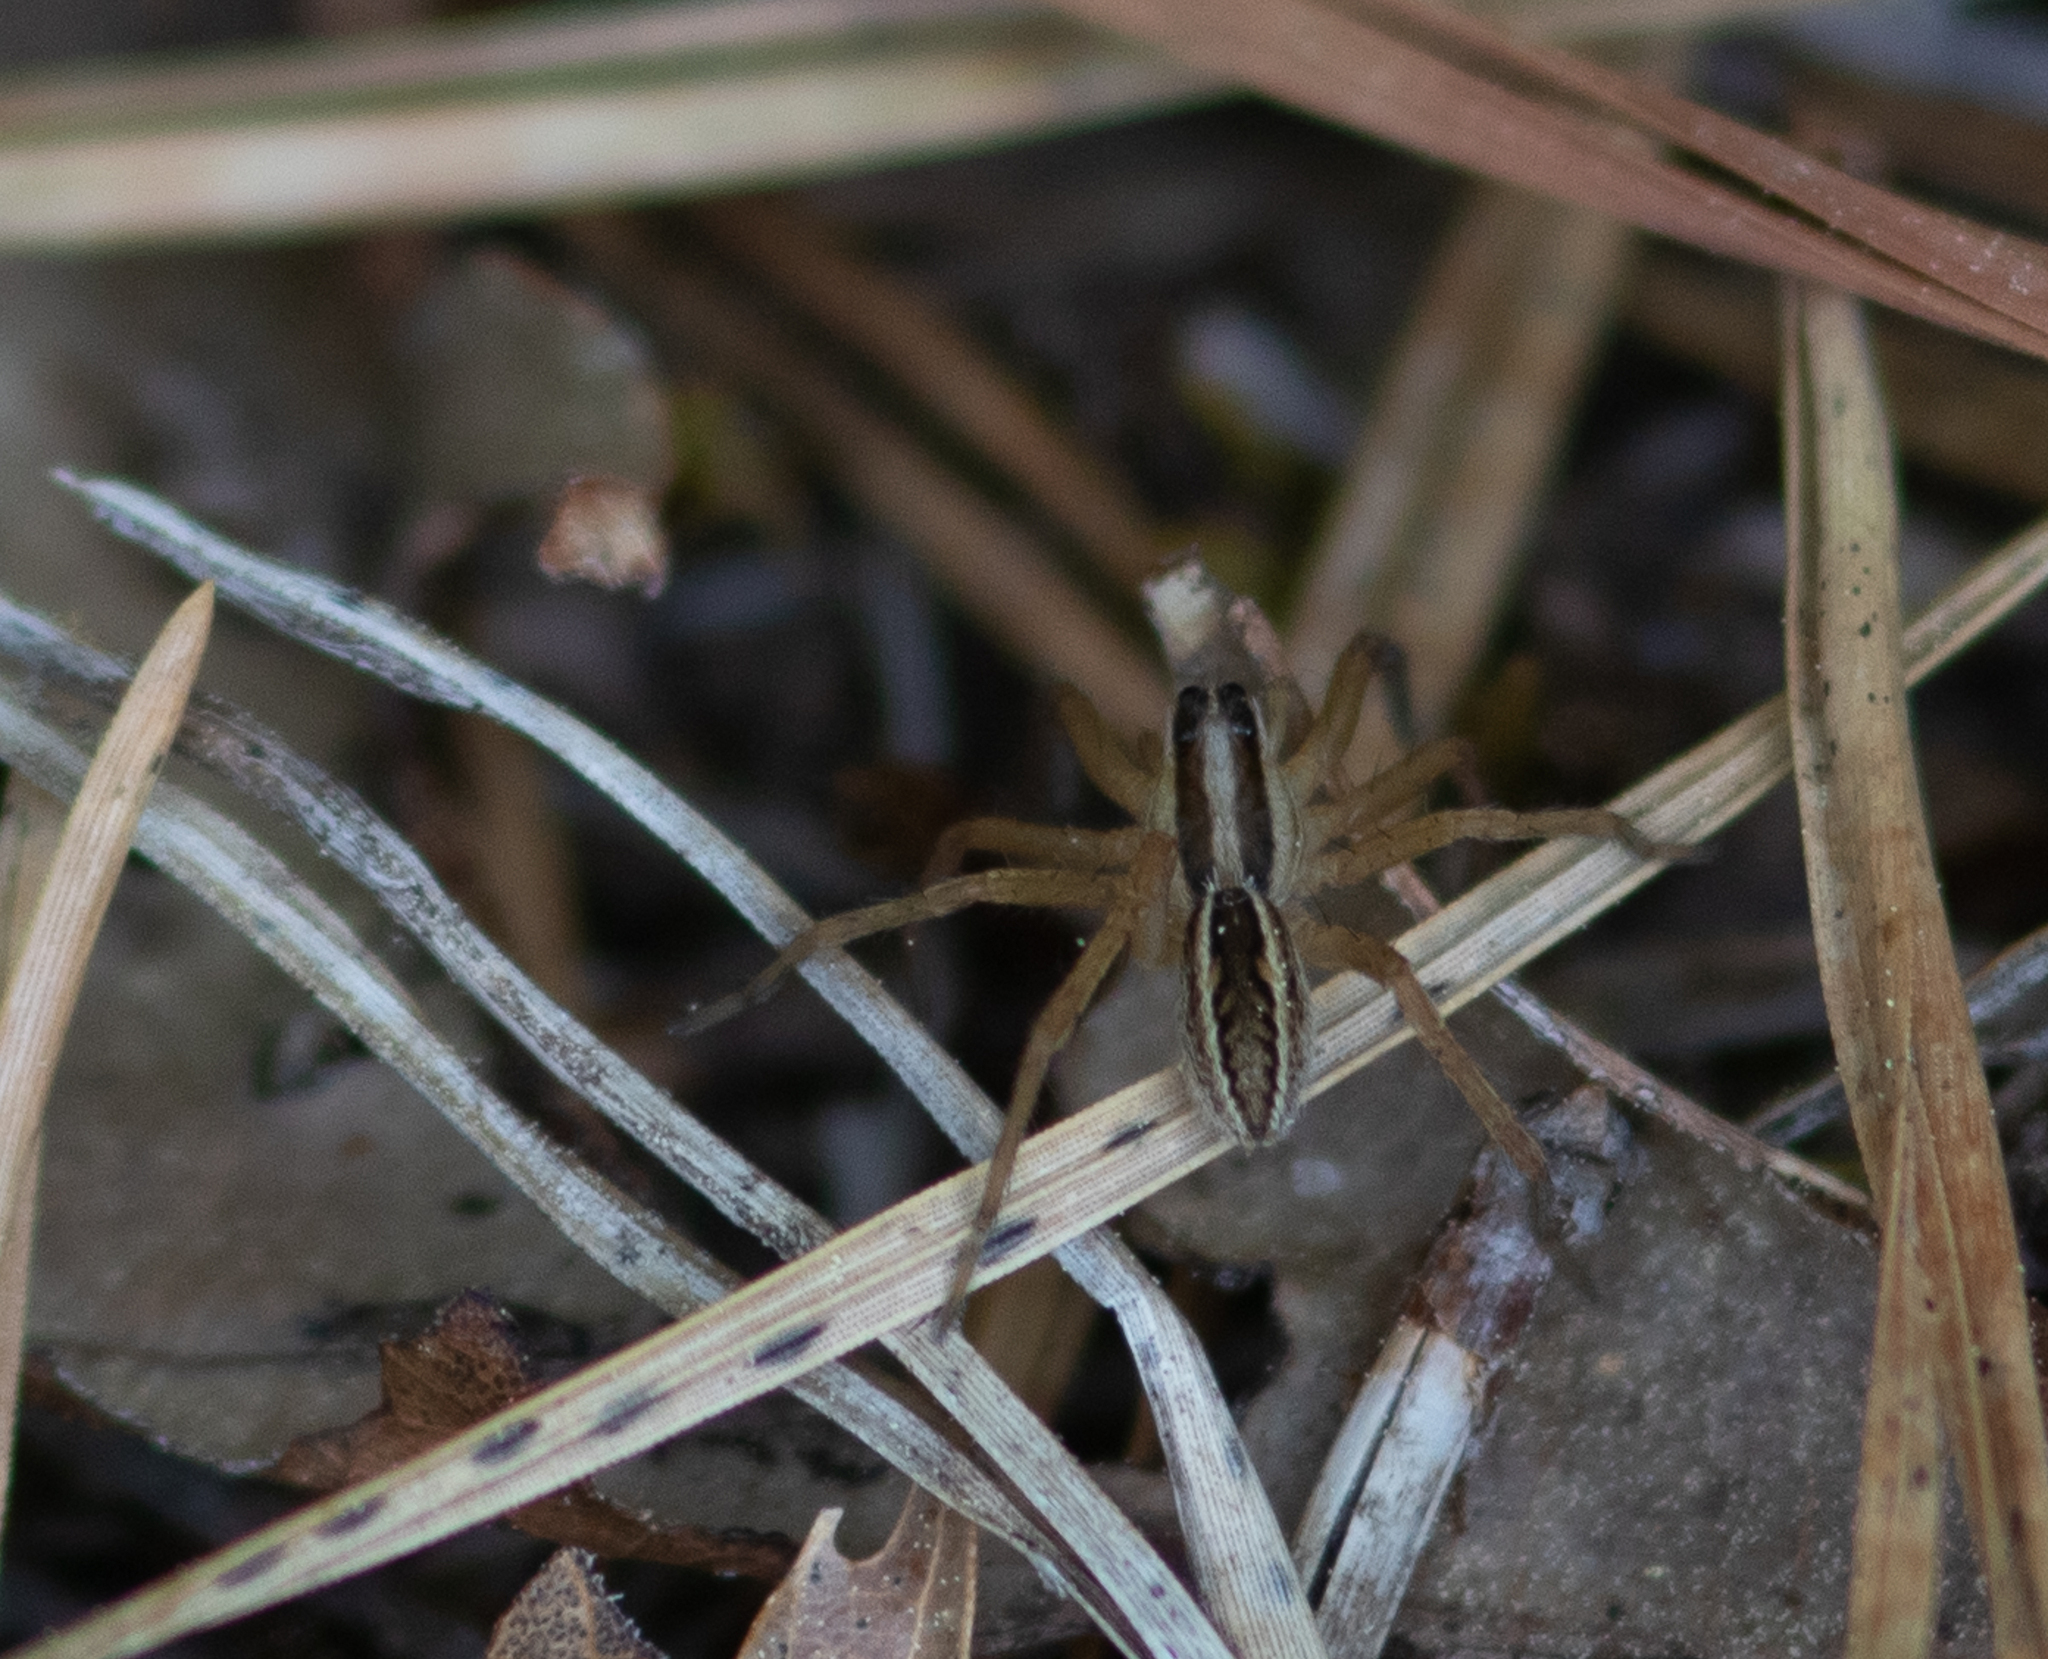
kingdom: Animalia
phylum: Arthropoda
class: Arachnida
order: Araneae
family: Lycosidae
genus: Rabidosa
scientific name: Rabidosa rabida
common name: Rabid wolf spider
